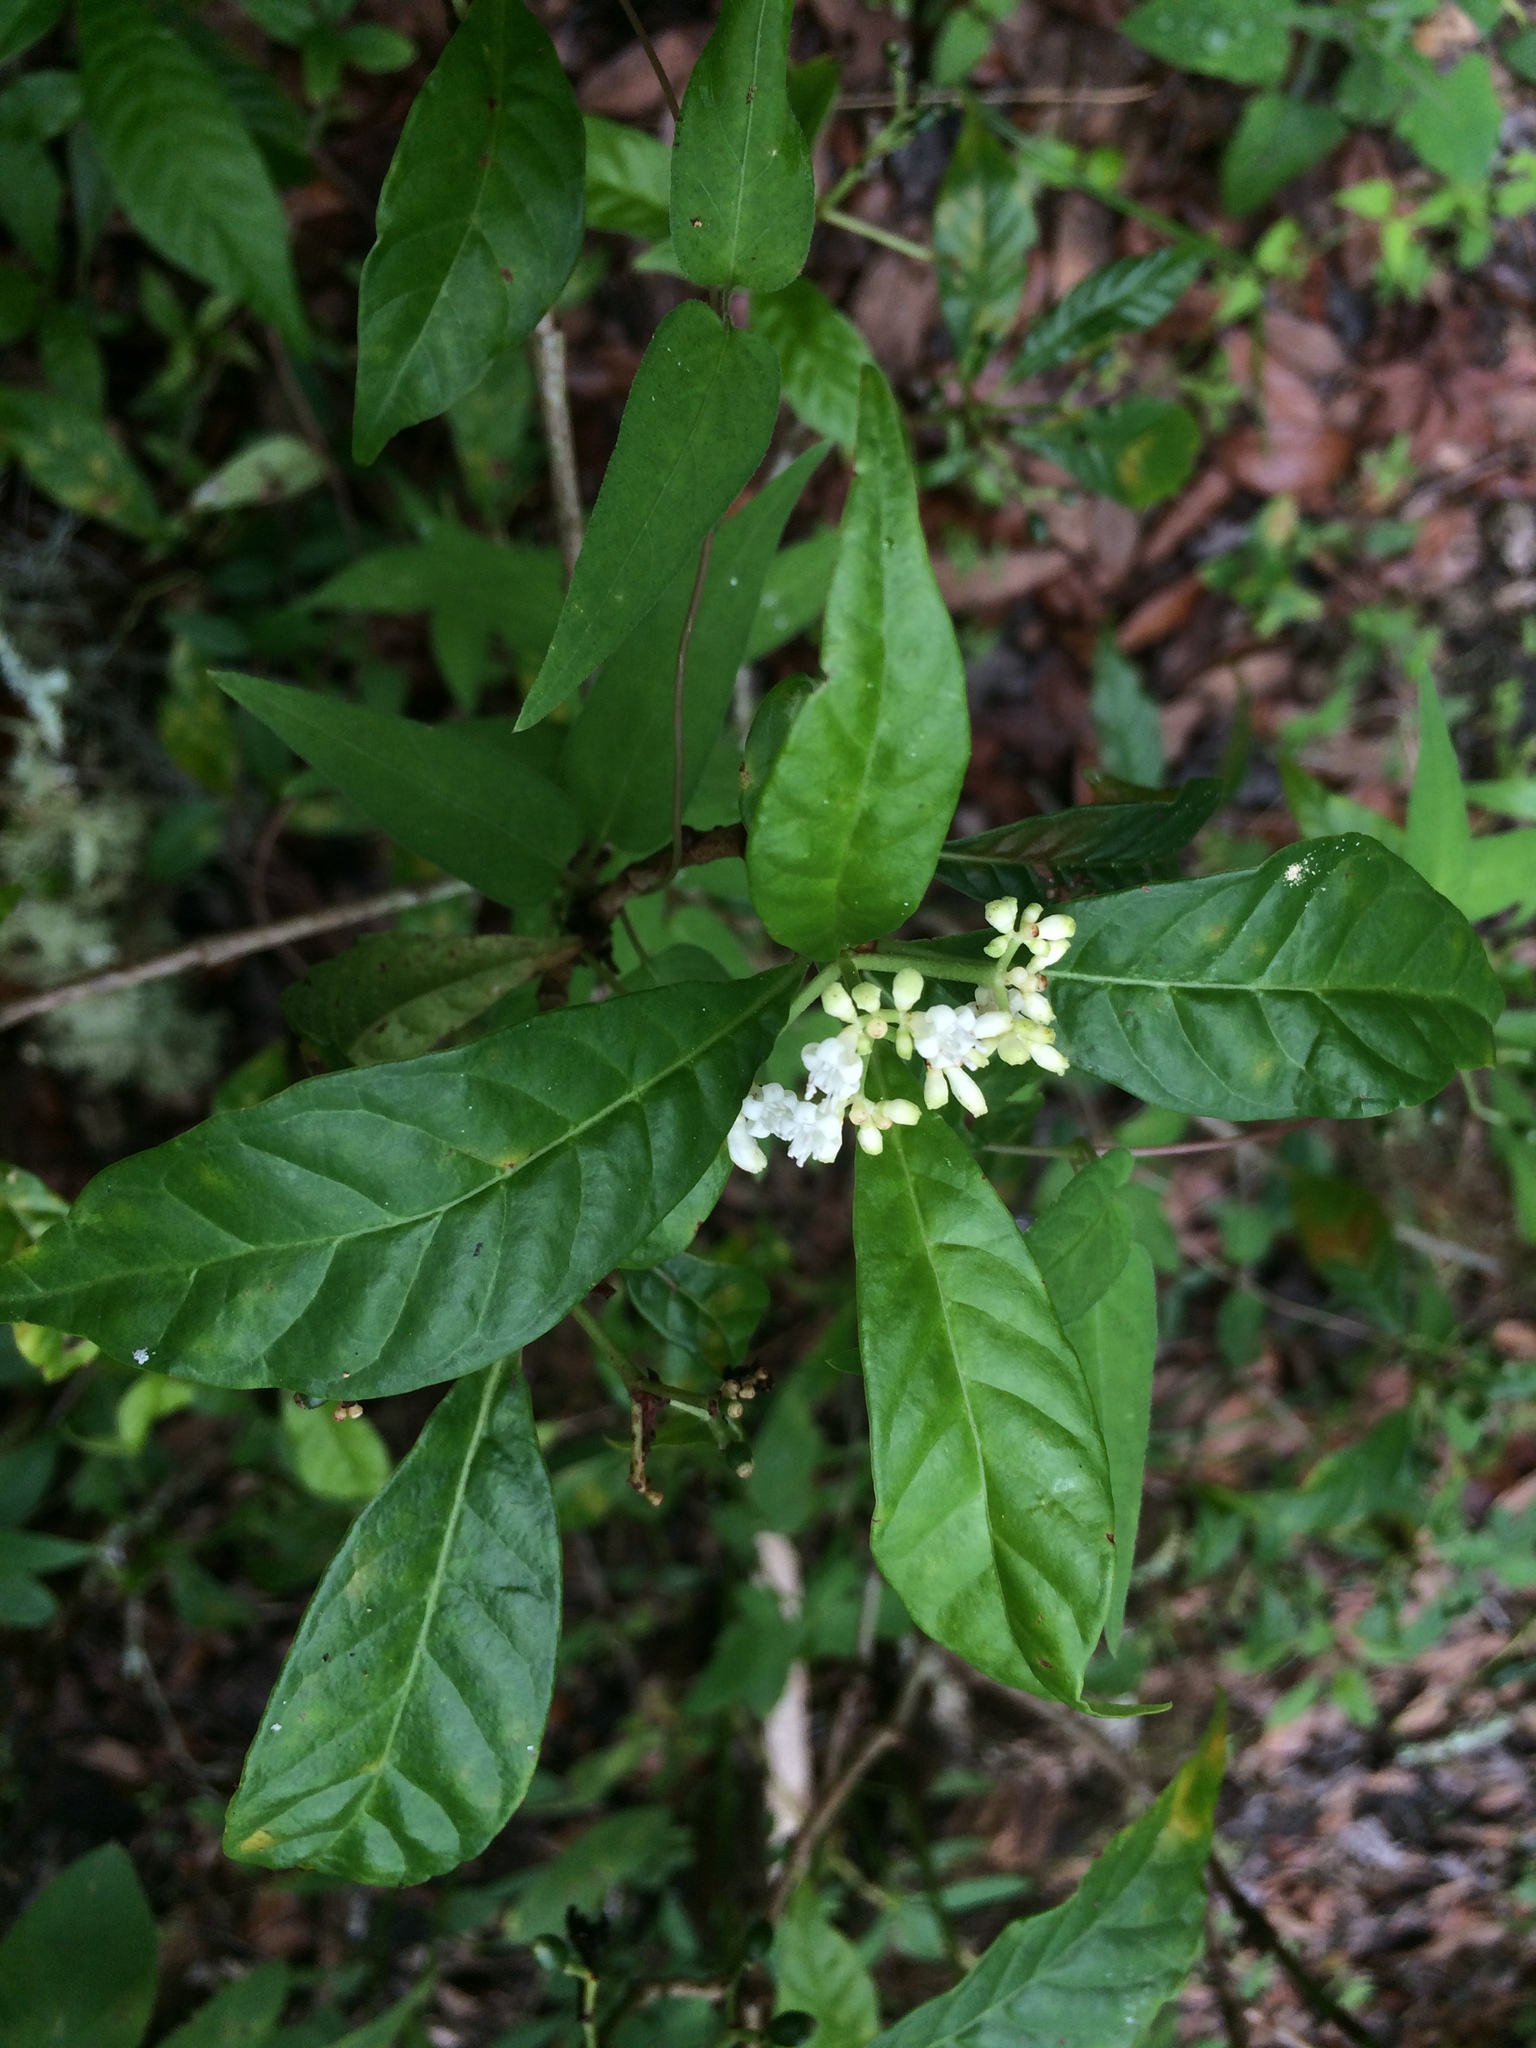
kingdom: Plantae
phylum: Tracheophyta
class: Magnoliopsida
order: Gentianales
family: Rubiaceae
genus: Psychotria
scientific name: Psychotria nervosa
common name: Bastard cankerberry
